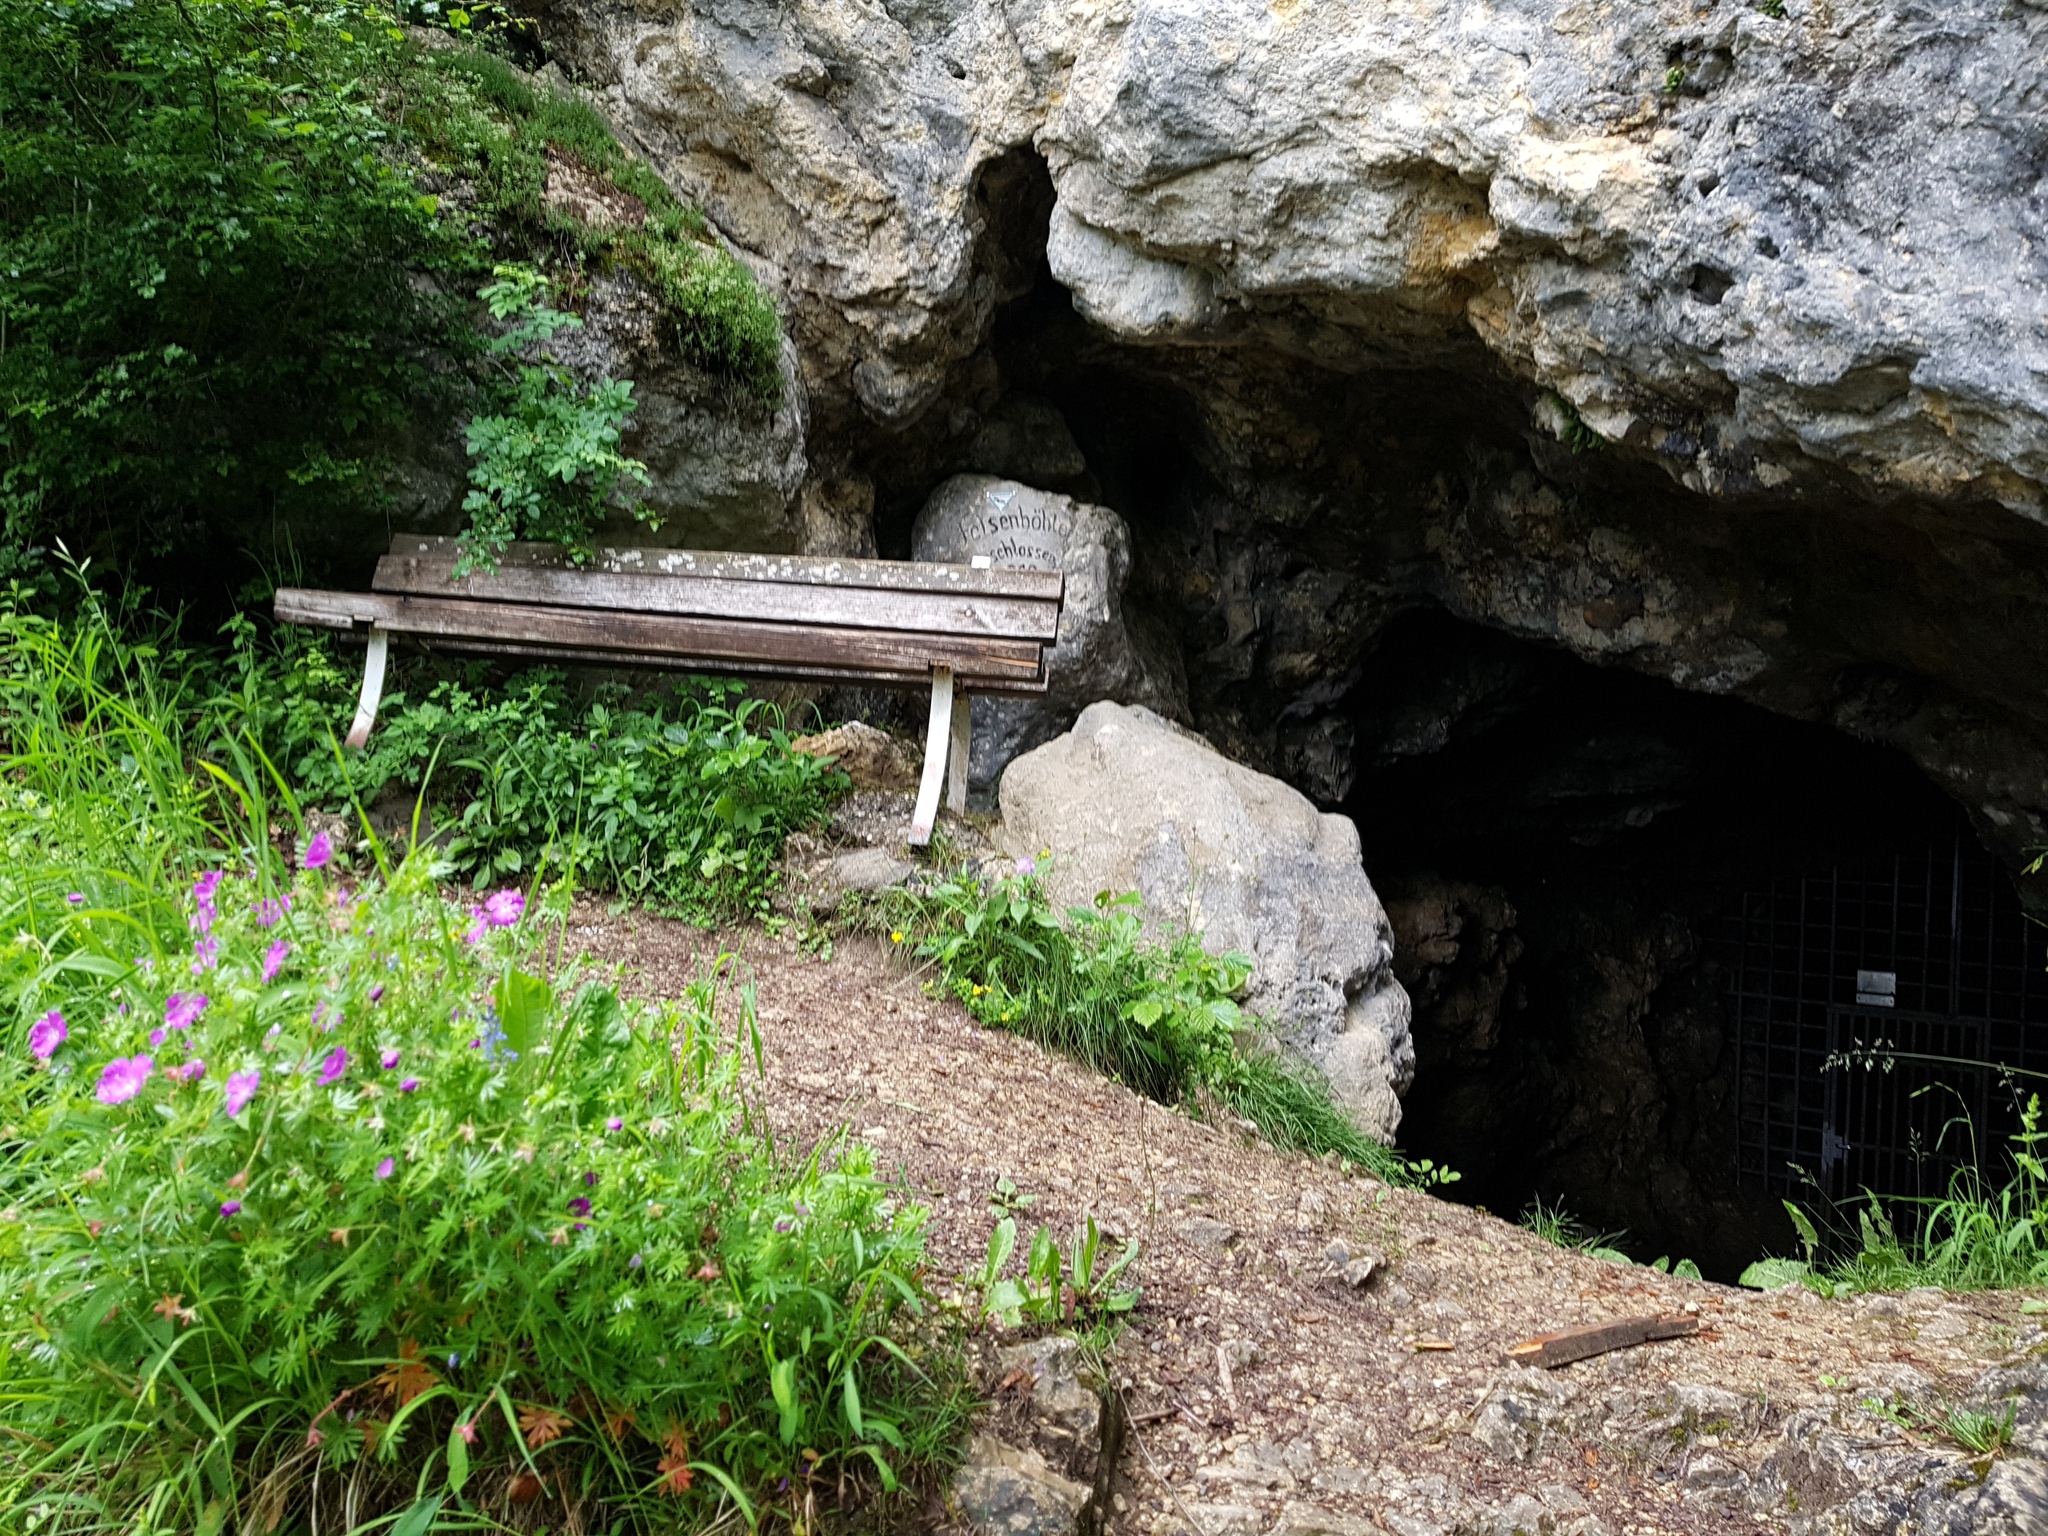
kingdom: Plantae
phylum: Tracheophyta
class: Magnoliopsida
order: Geraniales
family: Geraniaceae
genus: Geranium
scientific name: Geranium sanguineum
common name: Bloody crane's-bill
